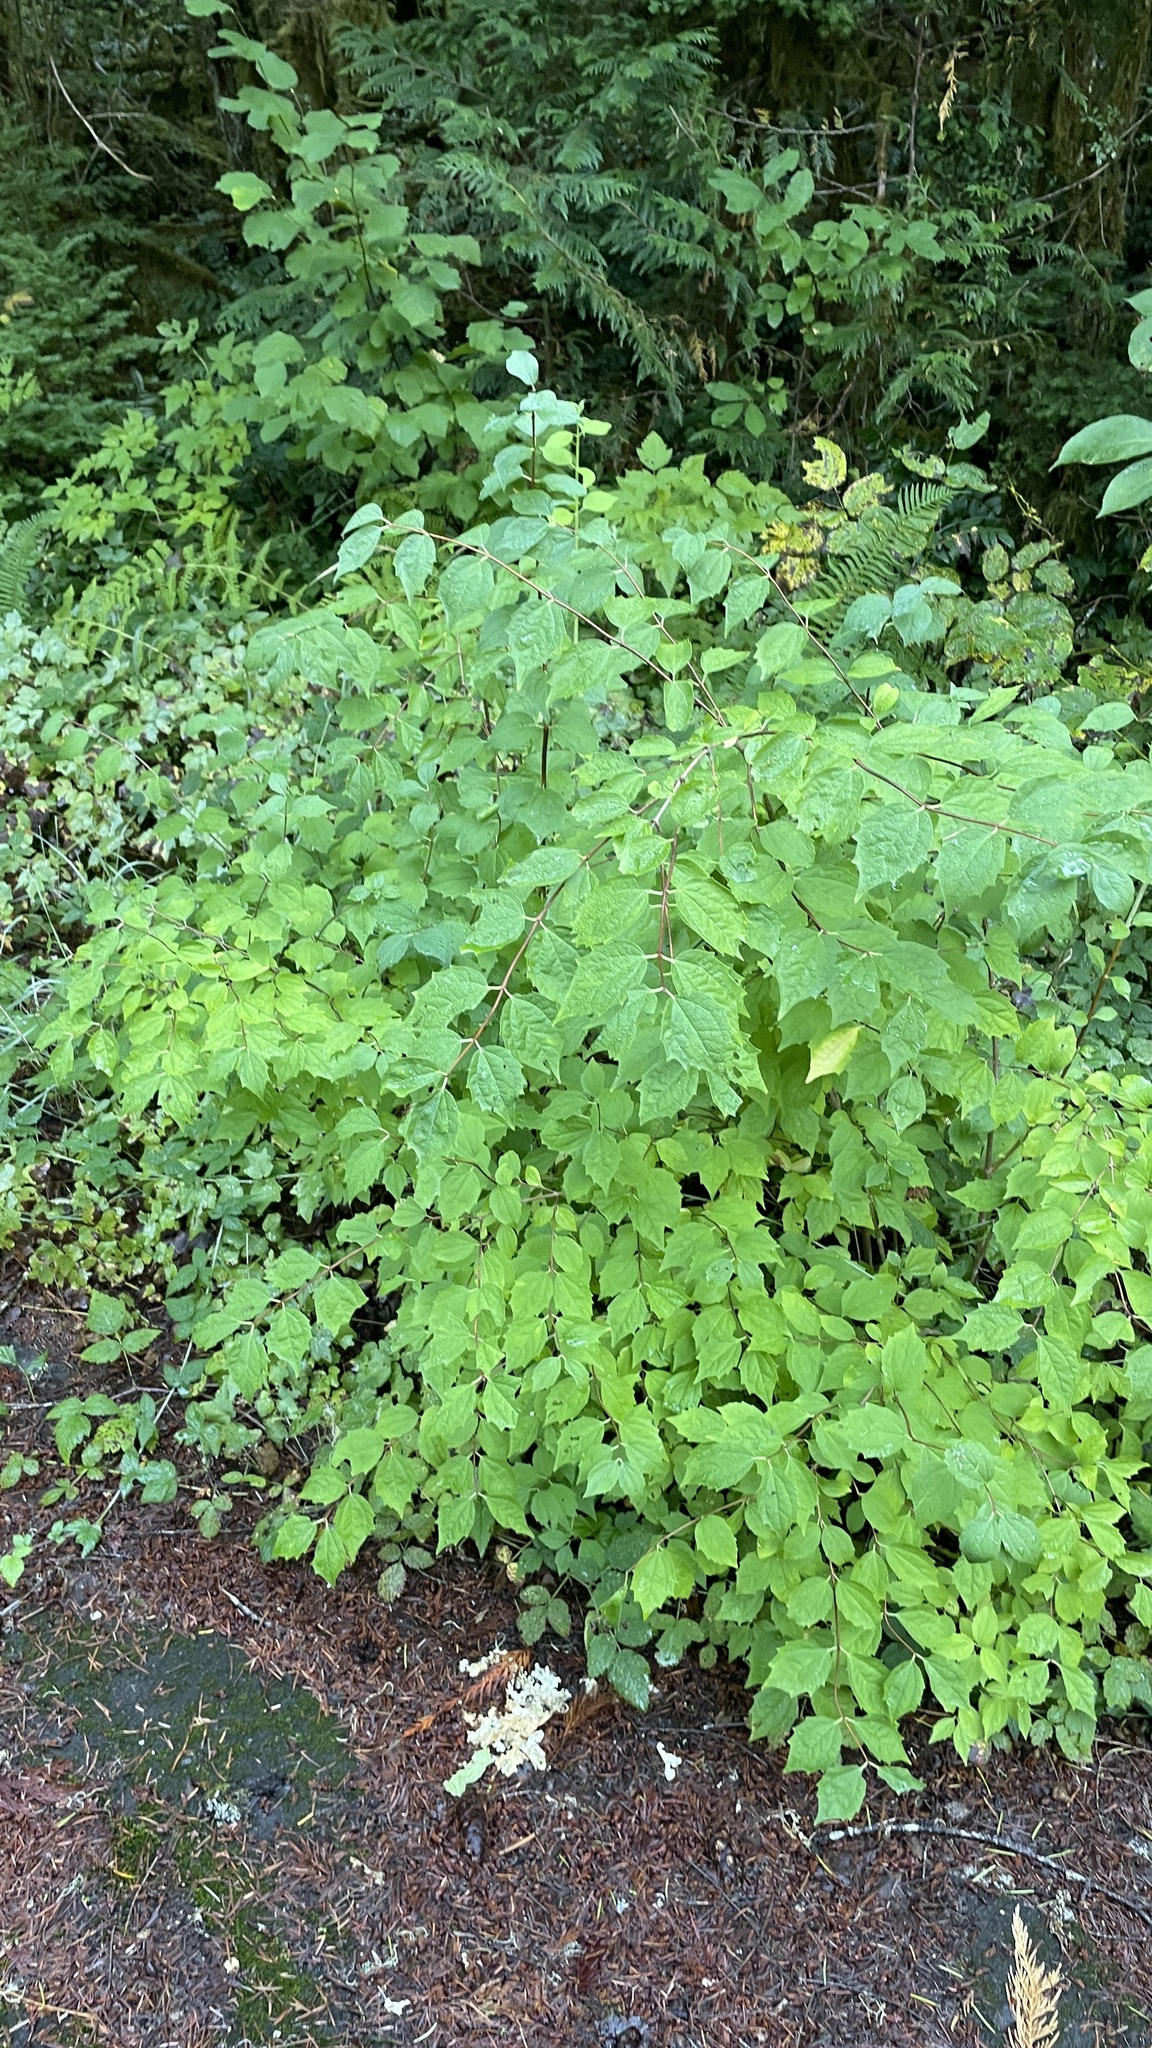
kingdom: Plantae
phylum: Tracheophyta
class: Magnoliopsida
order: Cornales
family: Hydrangeaceae
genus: Philadelphus
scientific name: Philadelphus lewisii
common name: Lewis's mock orange
